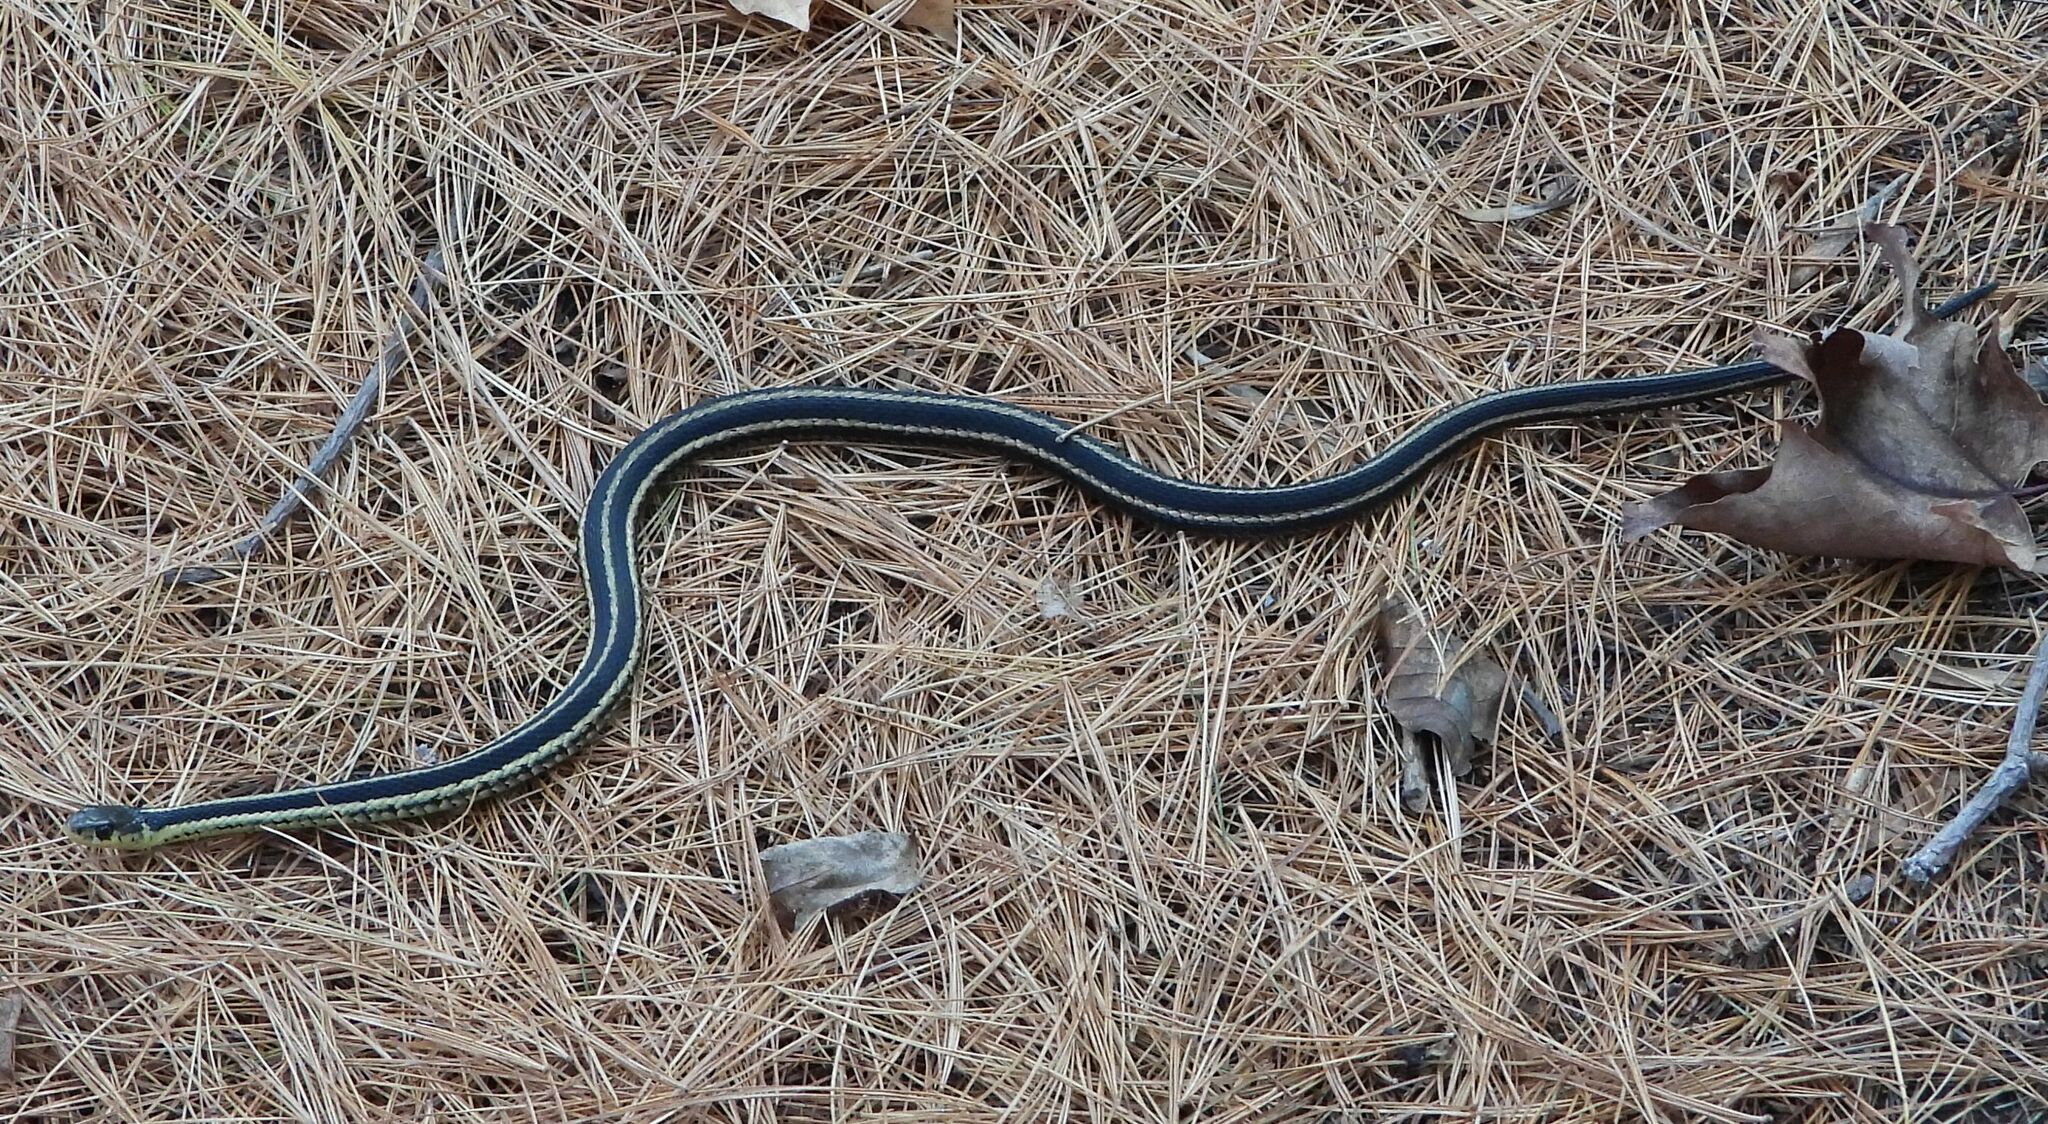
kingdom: Animalia
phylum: Chordata
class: Squamata
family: Colubridae
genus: Thamnophis
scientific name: Thamnophis sirtalis
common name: Common garter snake
